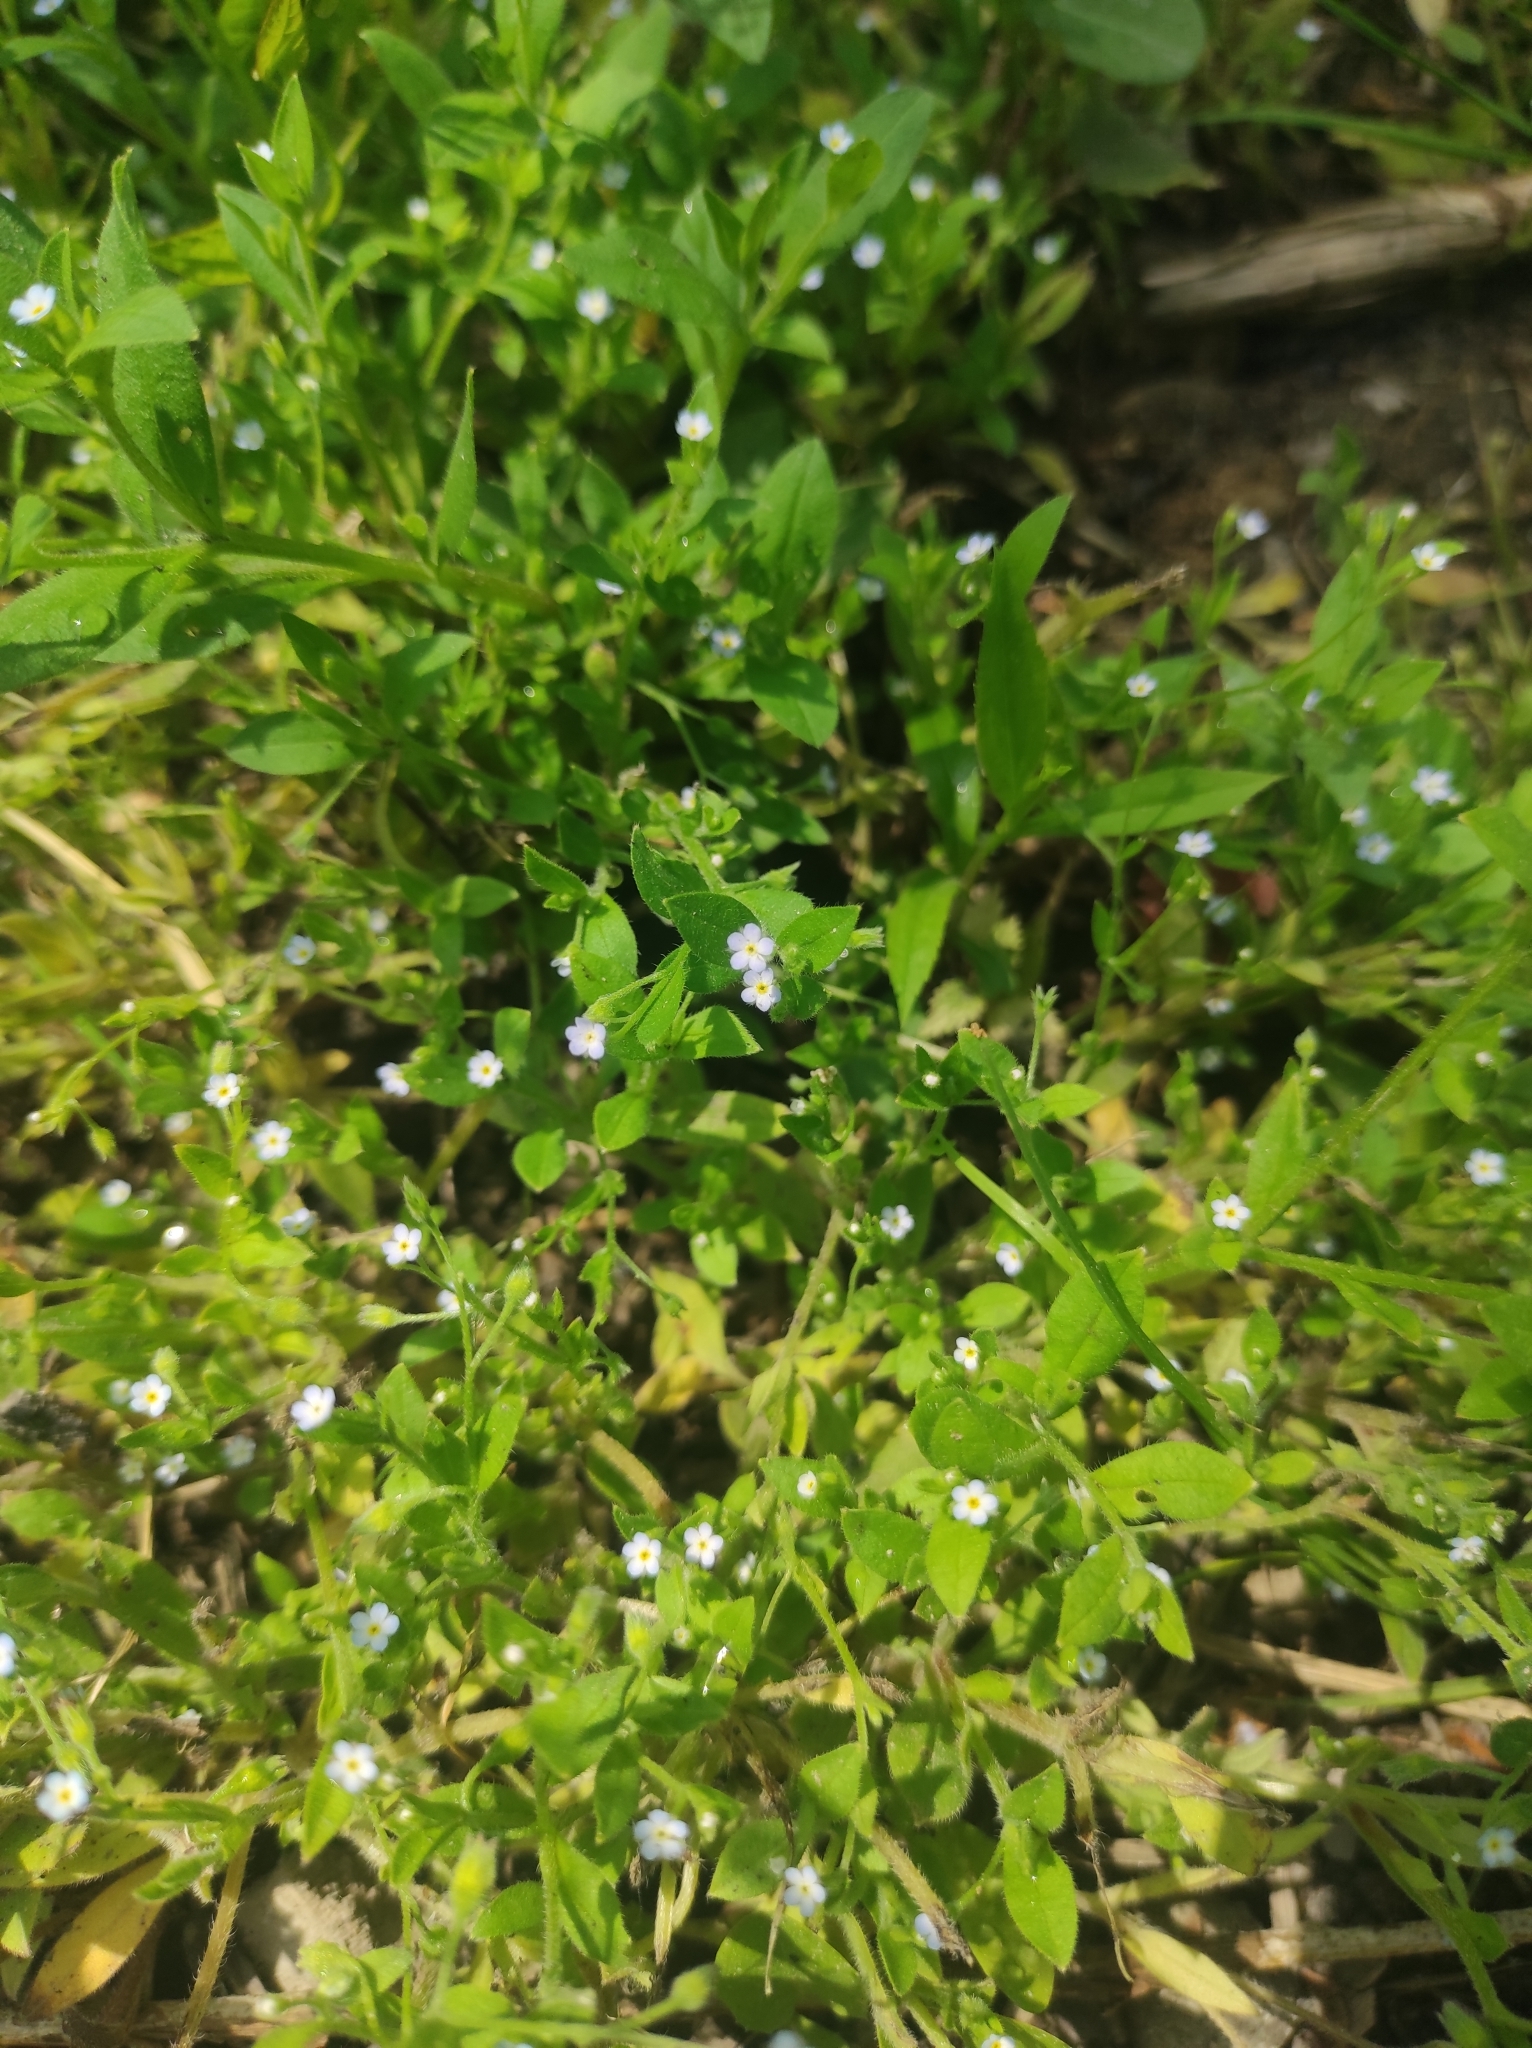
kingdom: Plantae
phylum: Tracheophyta
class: Magnoliopsida
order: Boraginales
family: Boraginaceae
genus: Myosotis
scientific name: Myosotis sparsiflora
